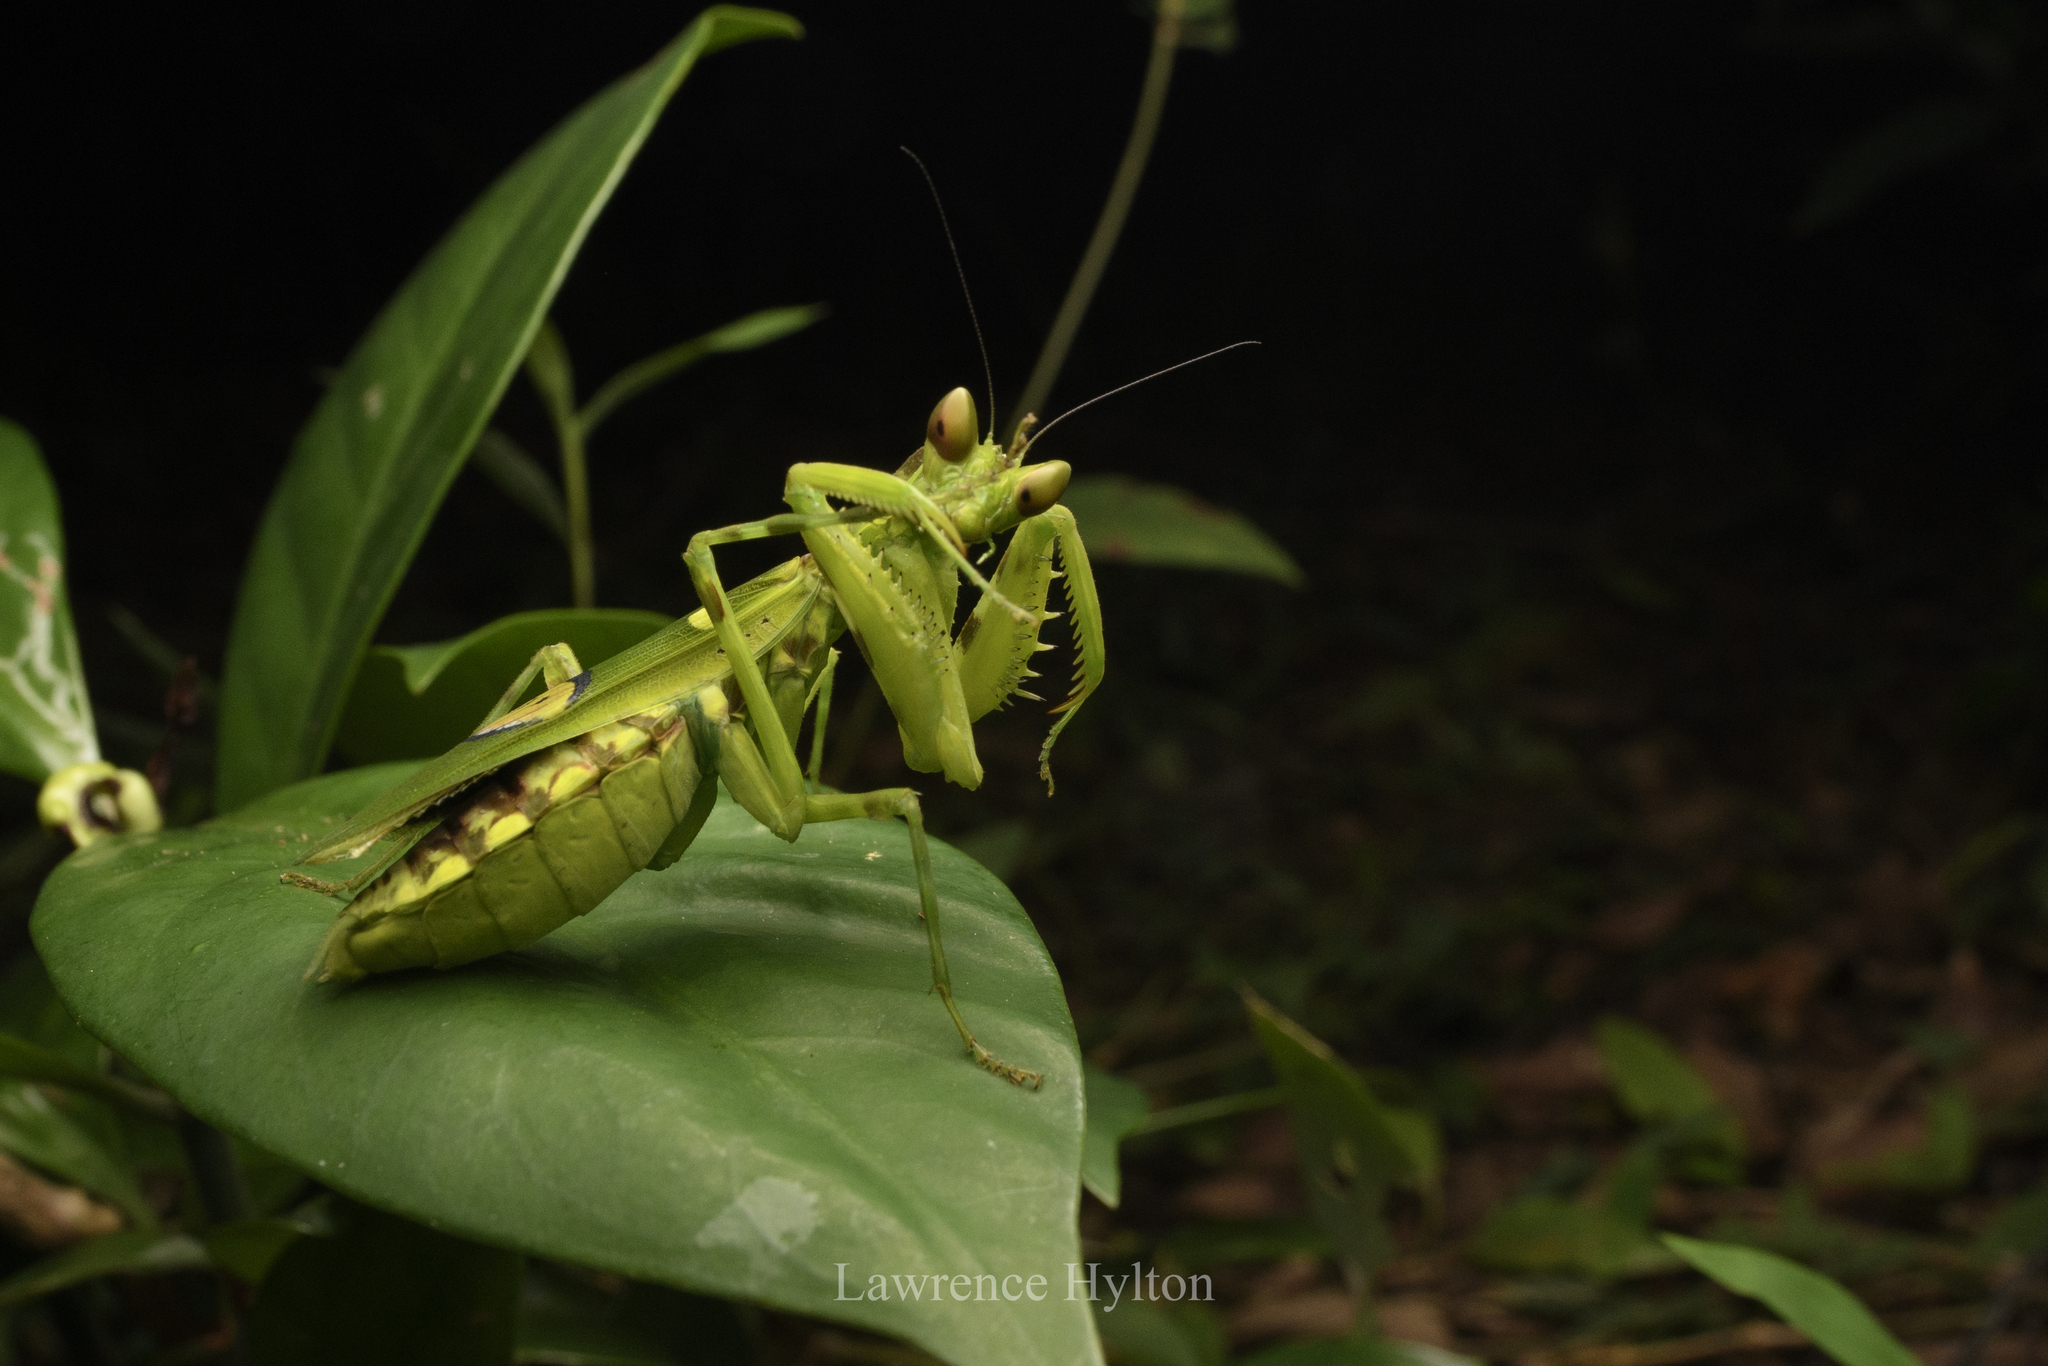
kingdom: Animalia
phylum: Arthropoda
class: Insecta
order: Mantodea
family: Hymenopodidae
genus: Creobroter
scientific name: Creobroter gemmatus
